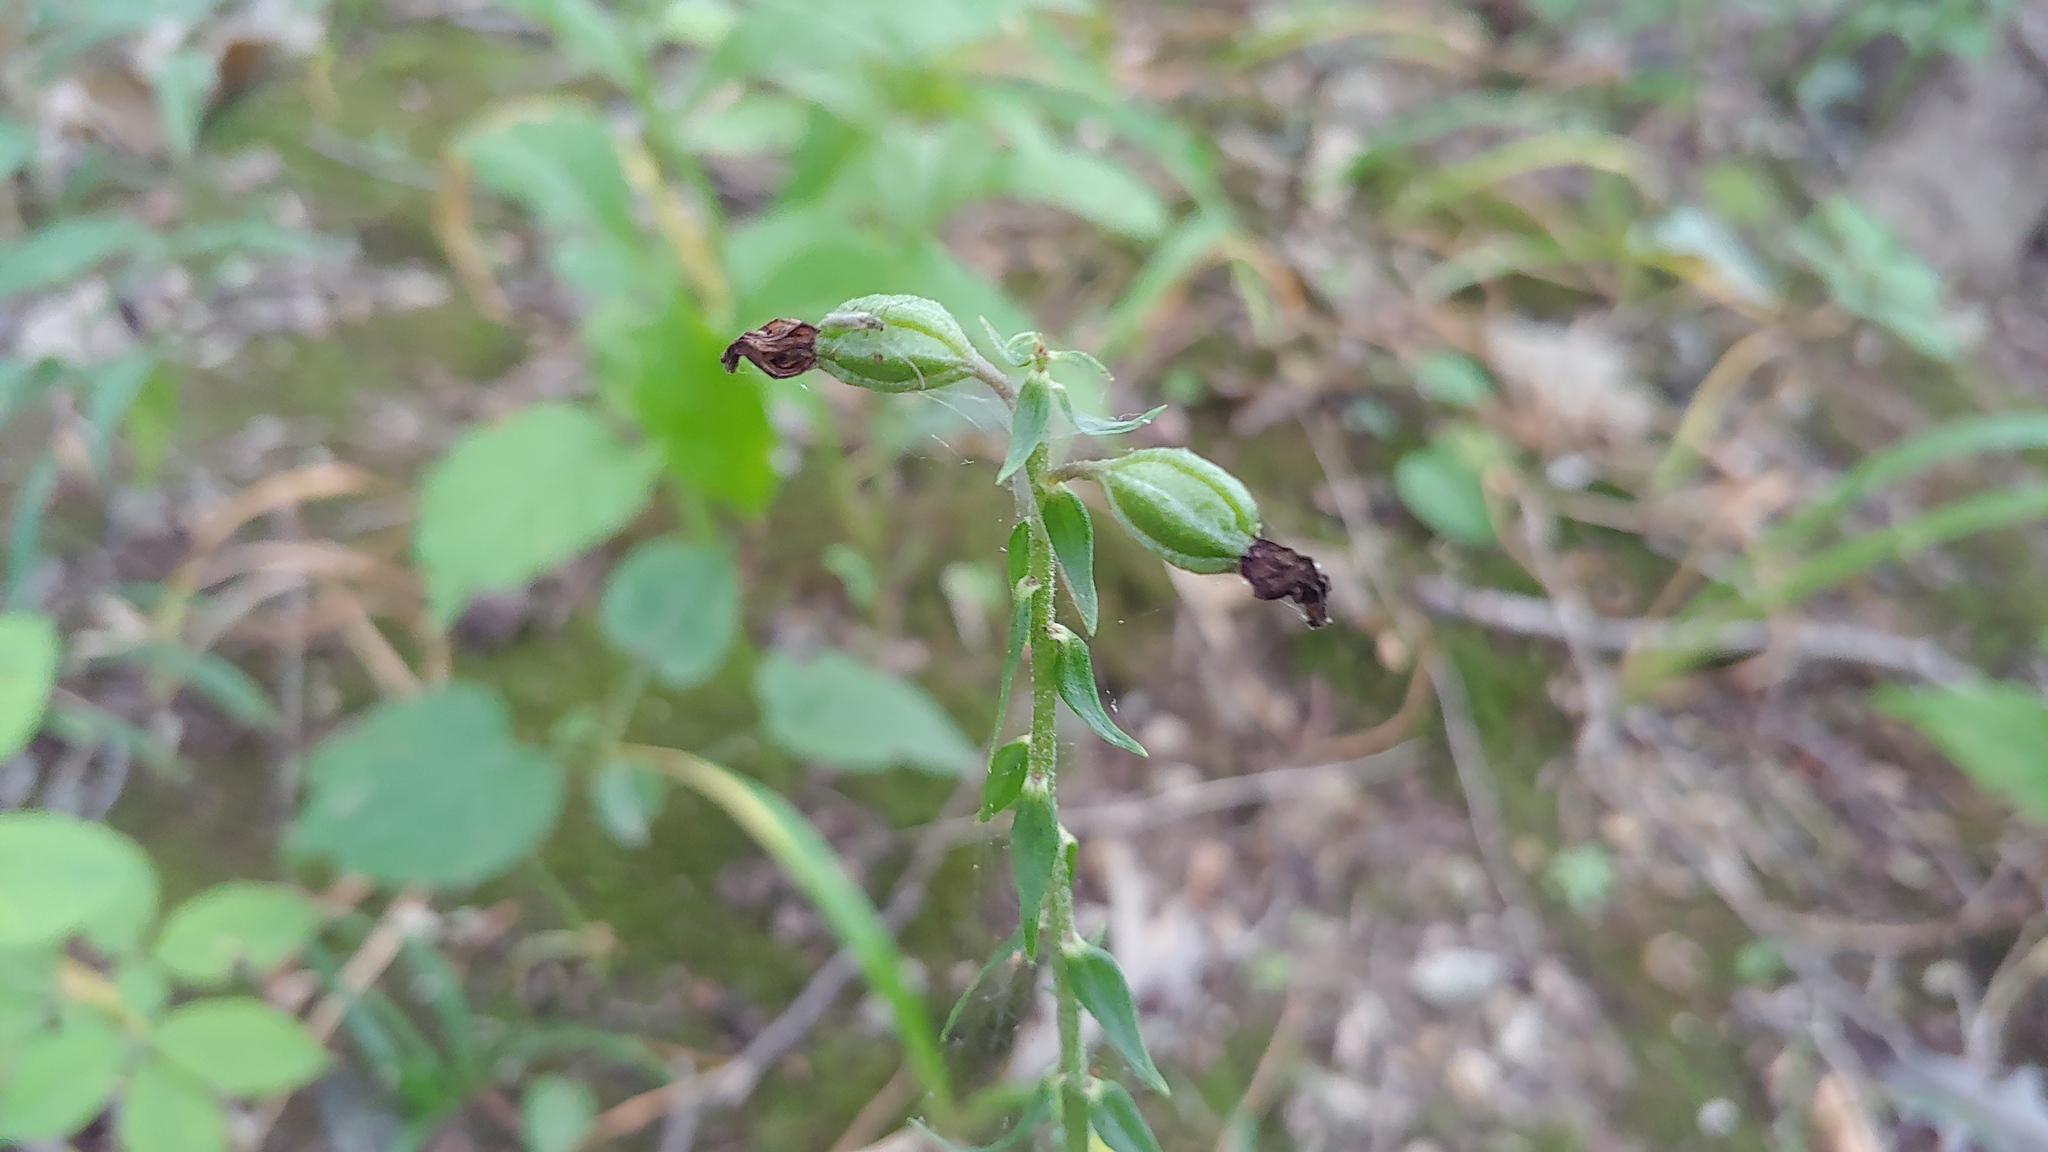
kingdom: Plantae
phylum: Tracheophyta
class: Liliopsida
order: Asparagales
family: Orchidaceae
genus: Epipactis
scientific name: Epipactis helleborine
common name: Broad-leaved helleborine
